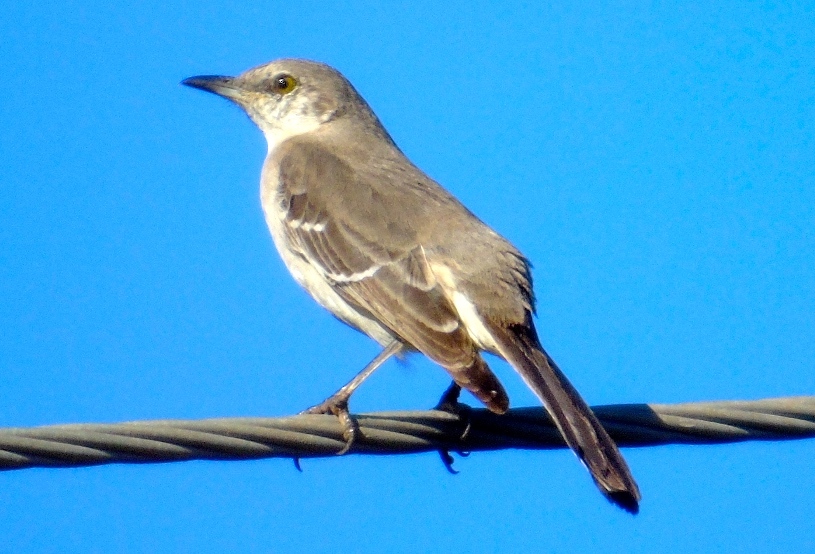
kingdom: Animalia
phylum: Chordata
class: Aves
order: Passeriformes
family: Mimidae
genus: Mimus
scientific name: Mimus polyglottos
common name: Northern mockingbird
